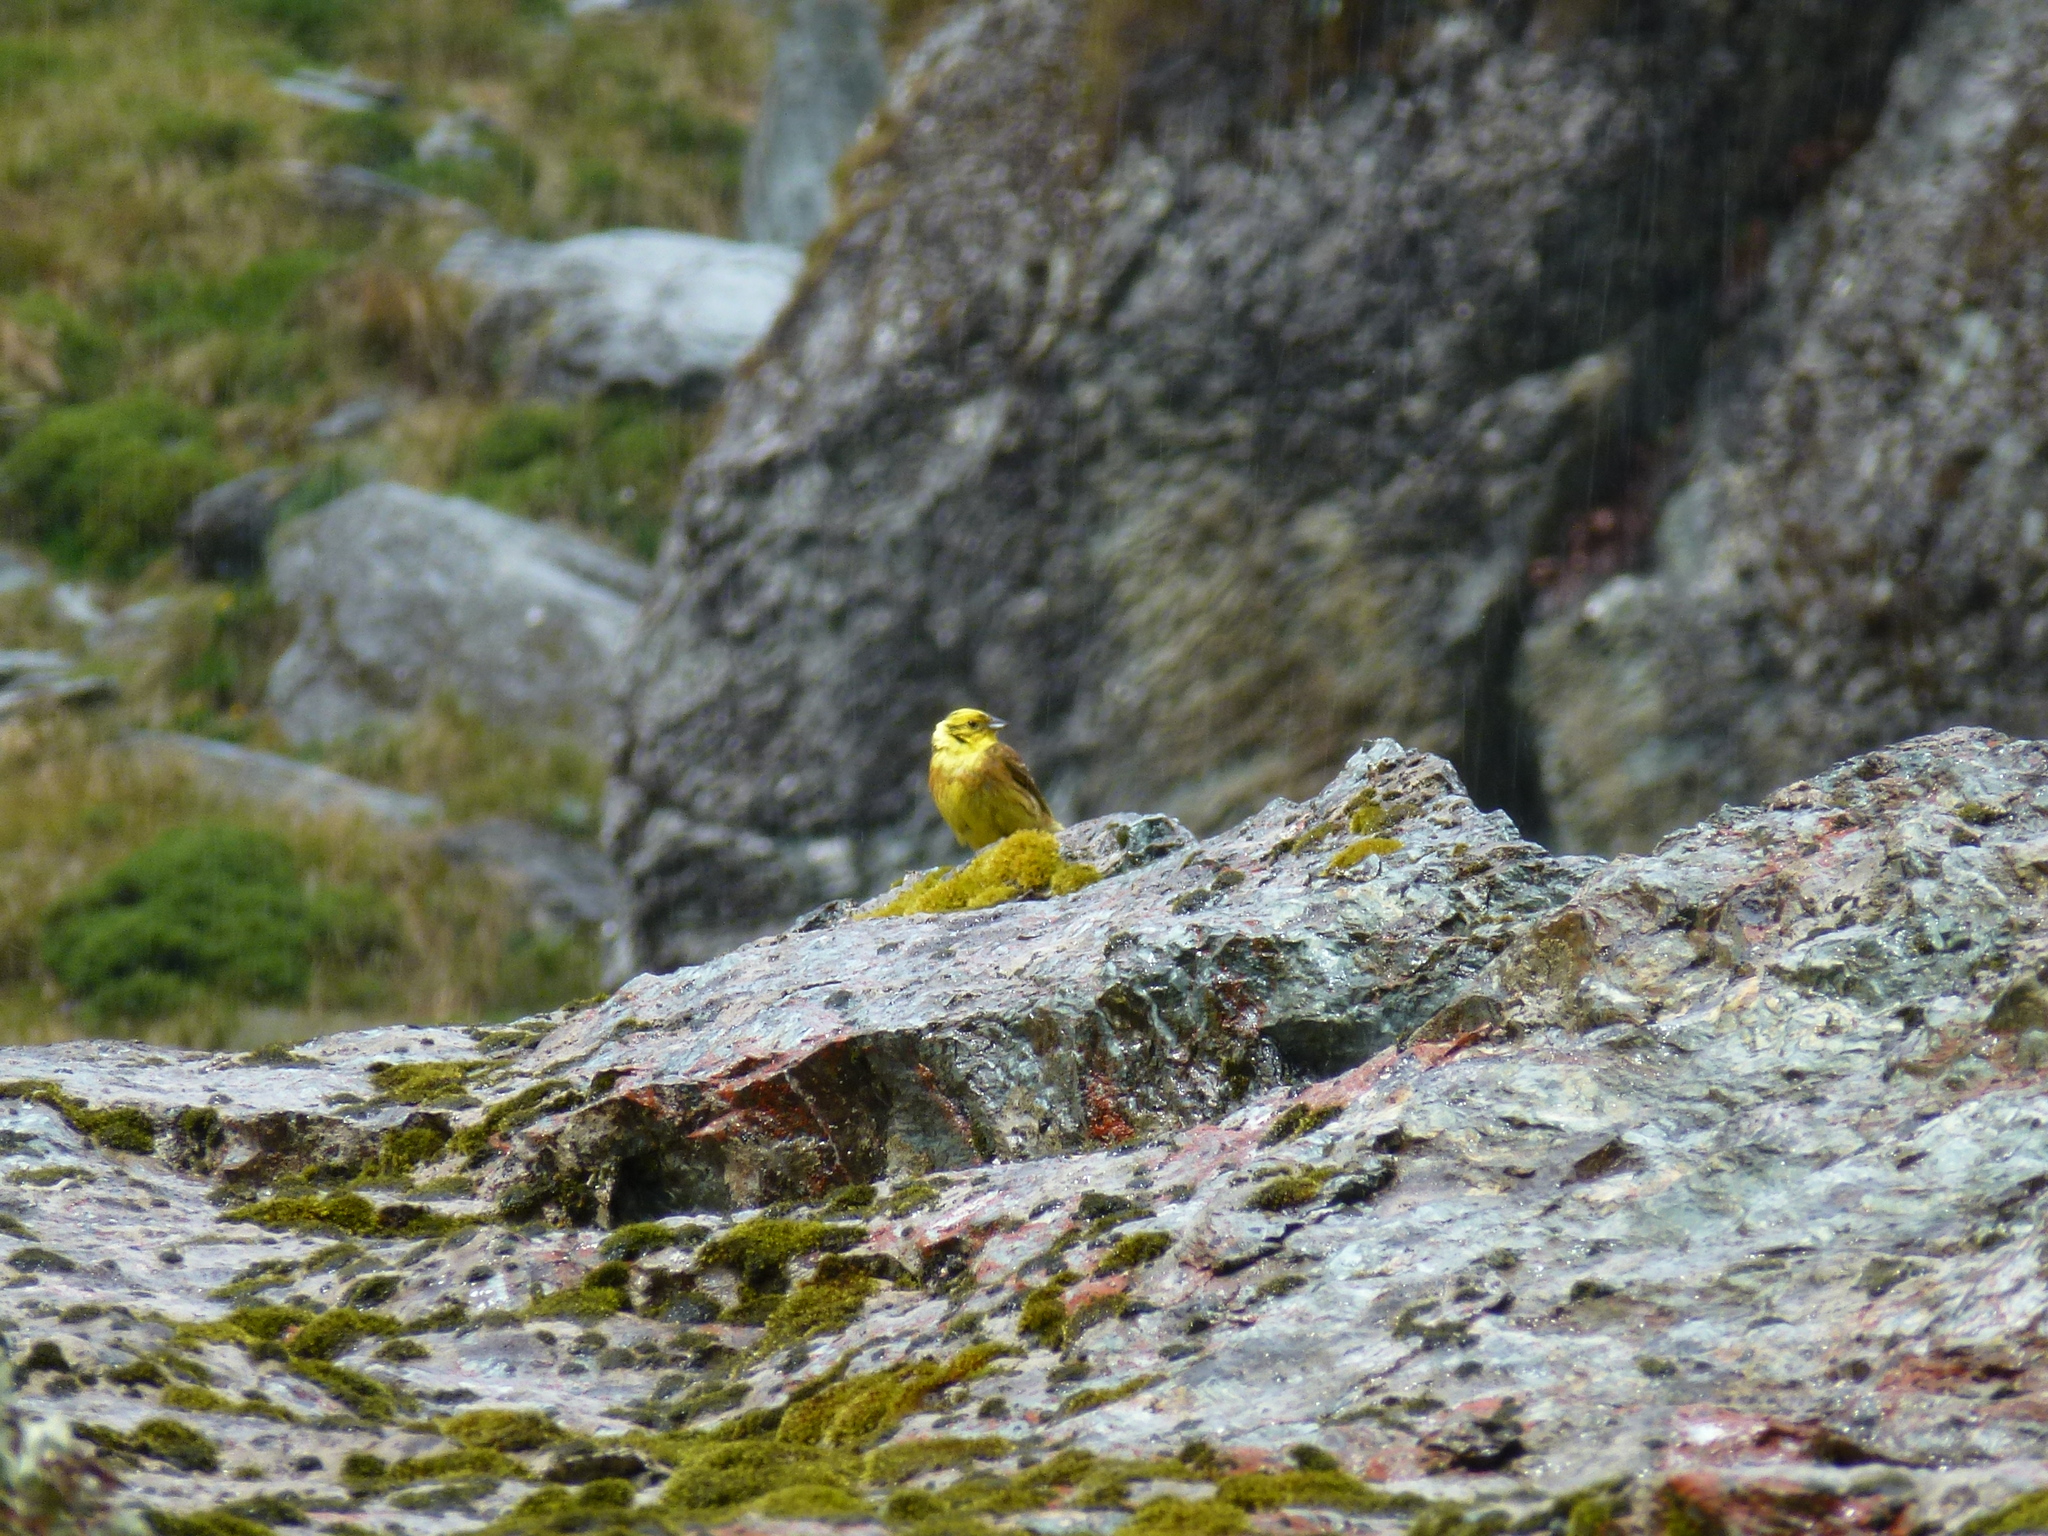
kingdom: Animalia
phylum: Chordata
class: Aves
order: Passeriformes
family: Emberizidae
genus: Emberiza
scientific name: Emberiza citrinella
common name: Yellowhammer
